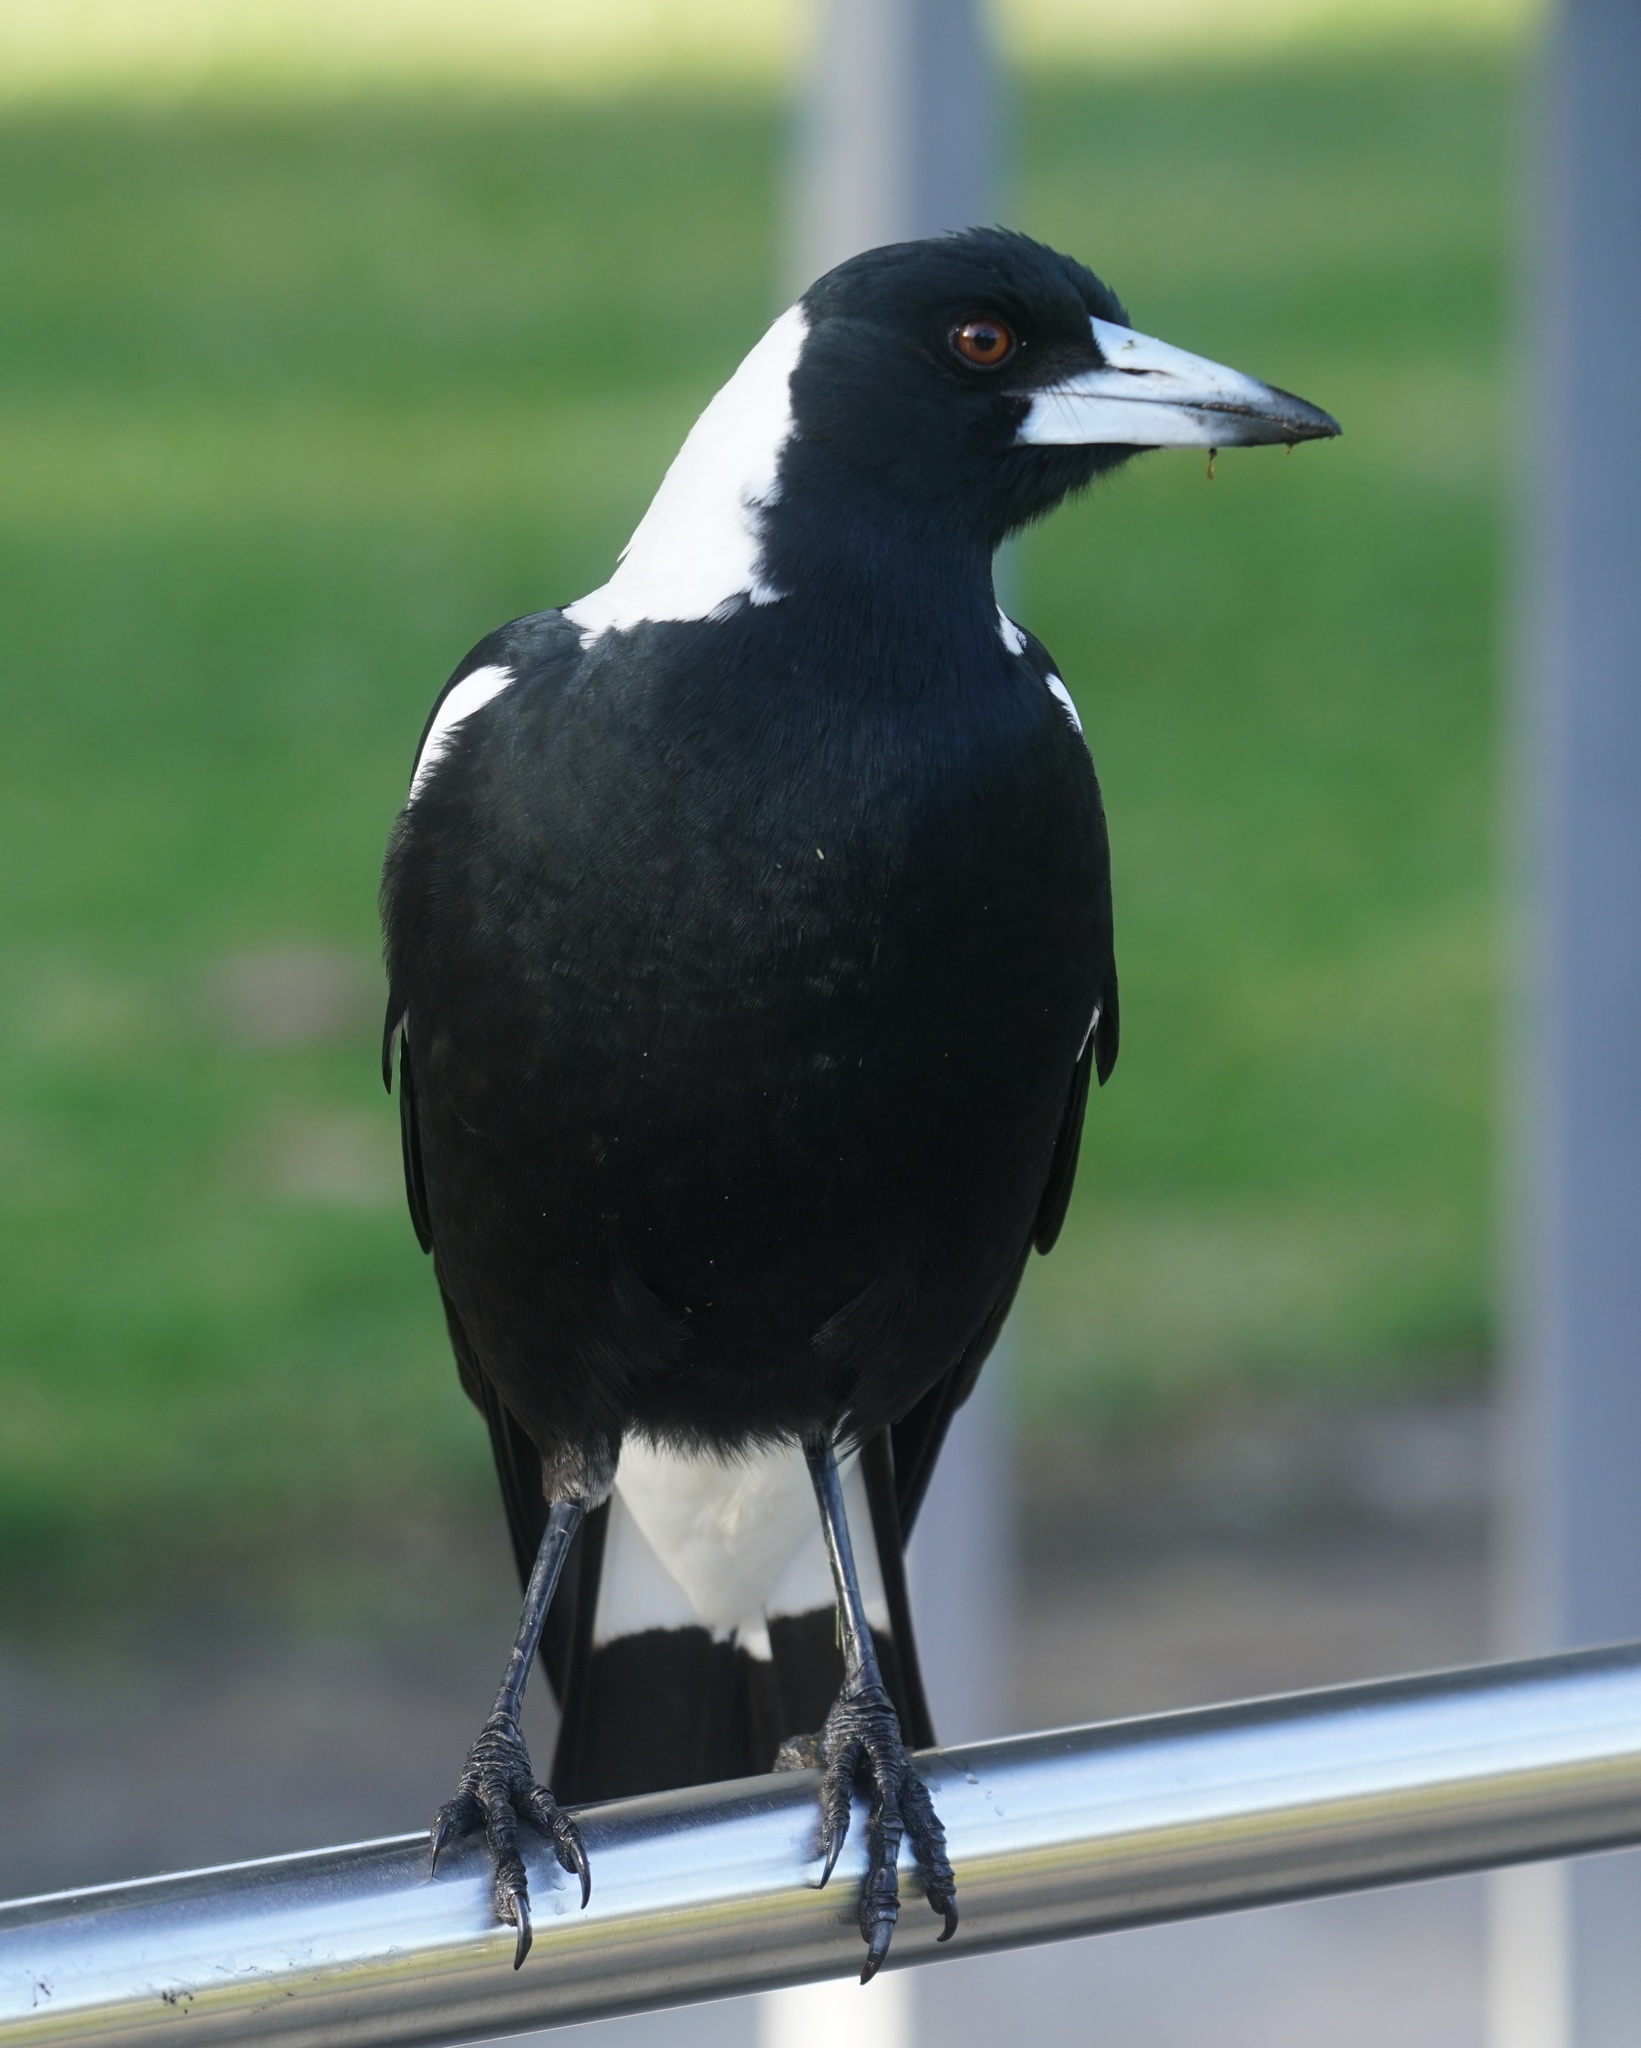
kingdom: Animalia
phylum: Chordata
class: Aves
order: Passeriformes
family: Cracticidae
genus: Gymnorhina
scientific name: Gymnorhina tibicen
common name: Australian magpie
